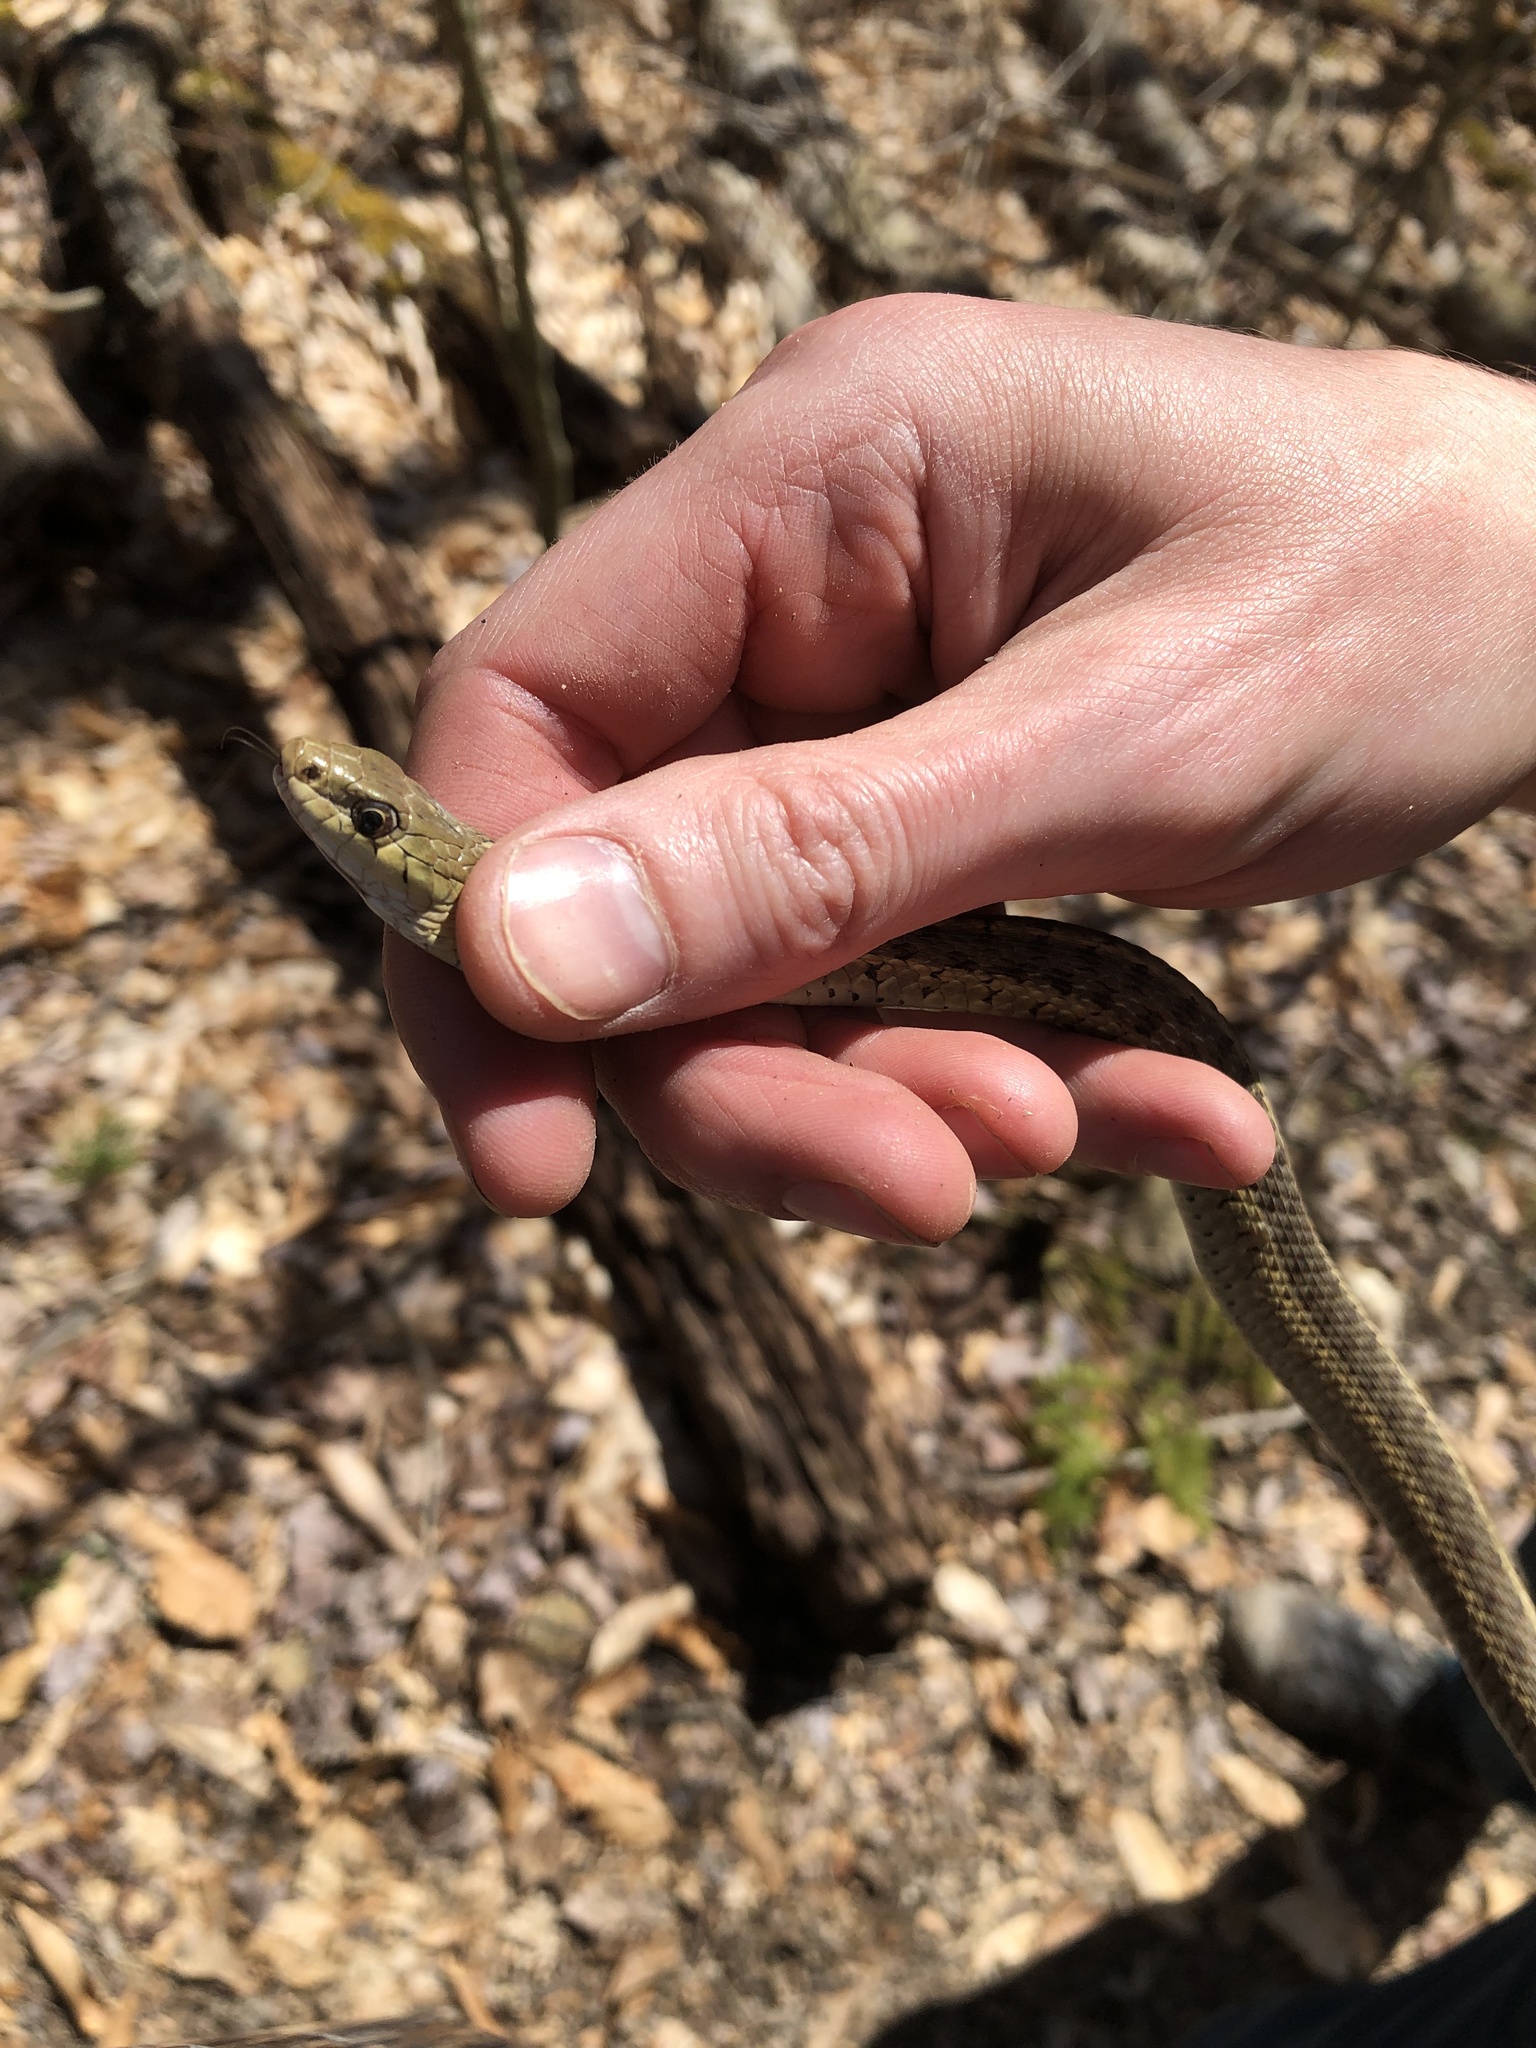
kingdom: Animalia
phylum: Chordata
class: Squamata
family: Colubridae
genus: Thamnophis
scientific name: Thamnophis sirtalis
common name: Common garter snake
